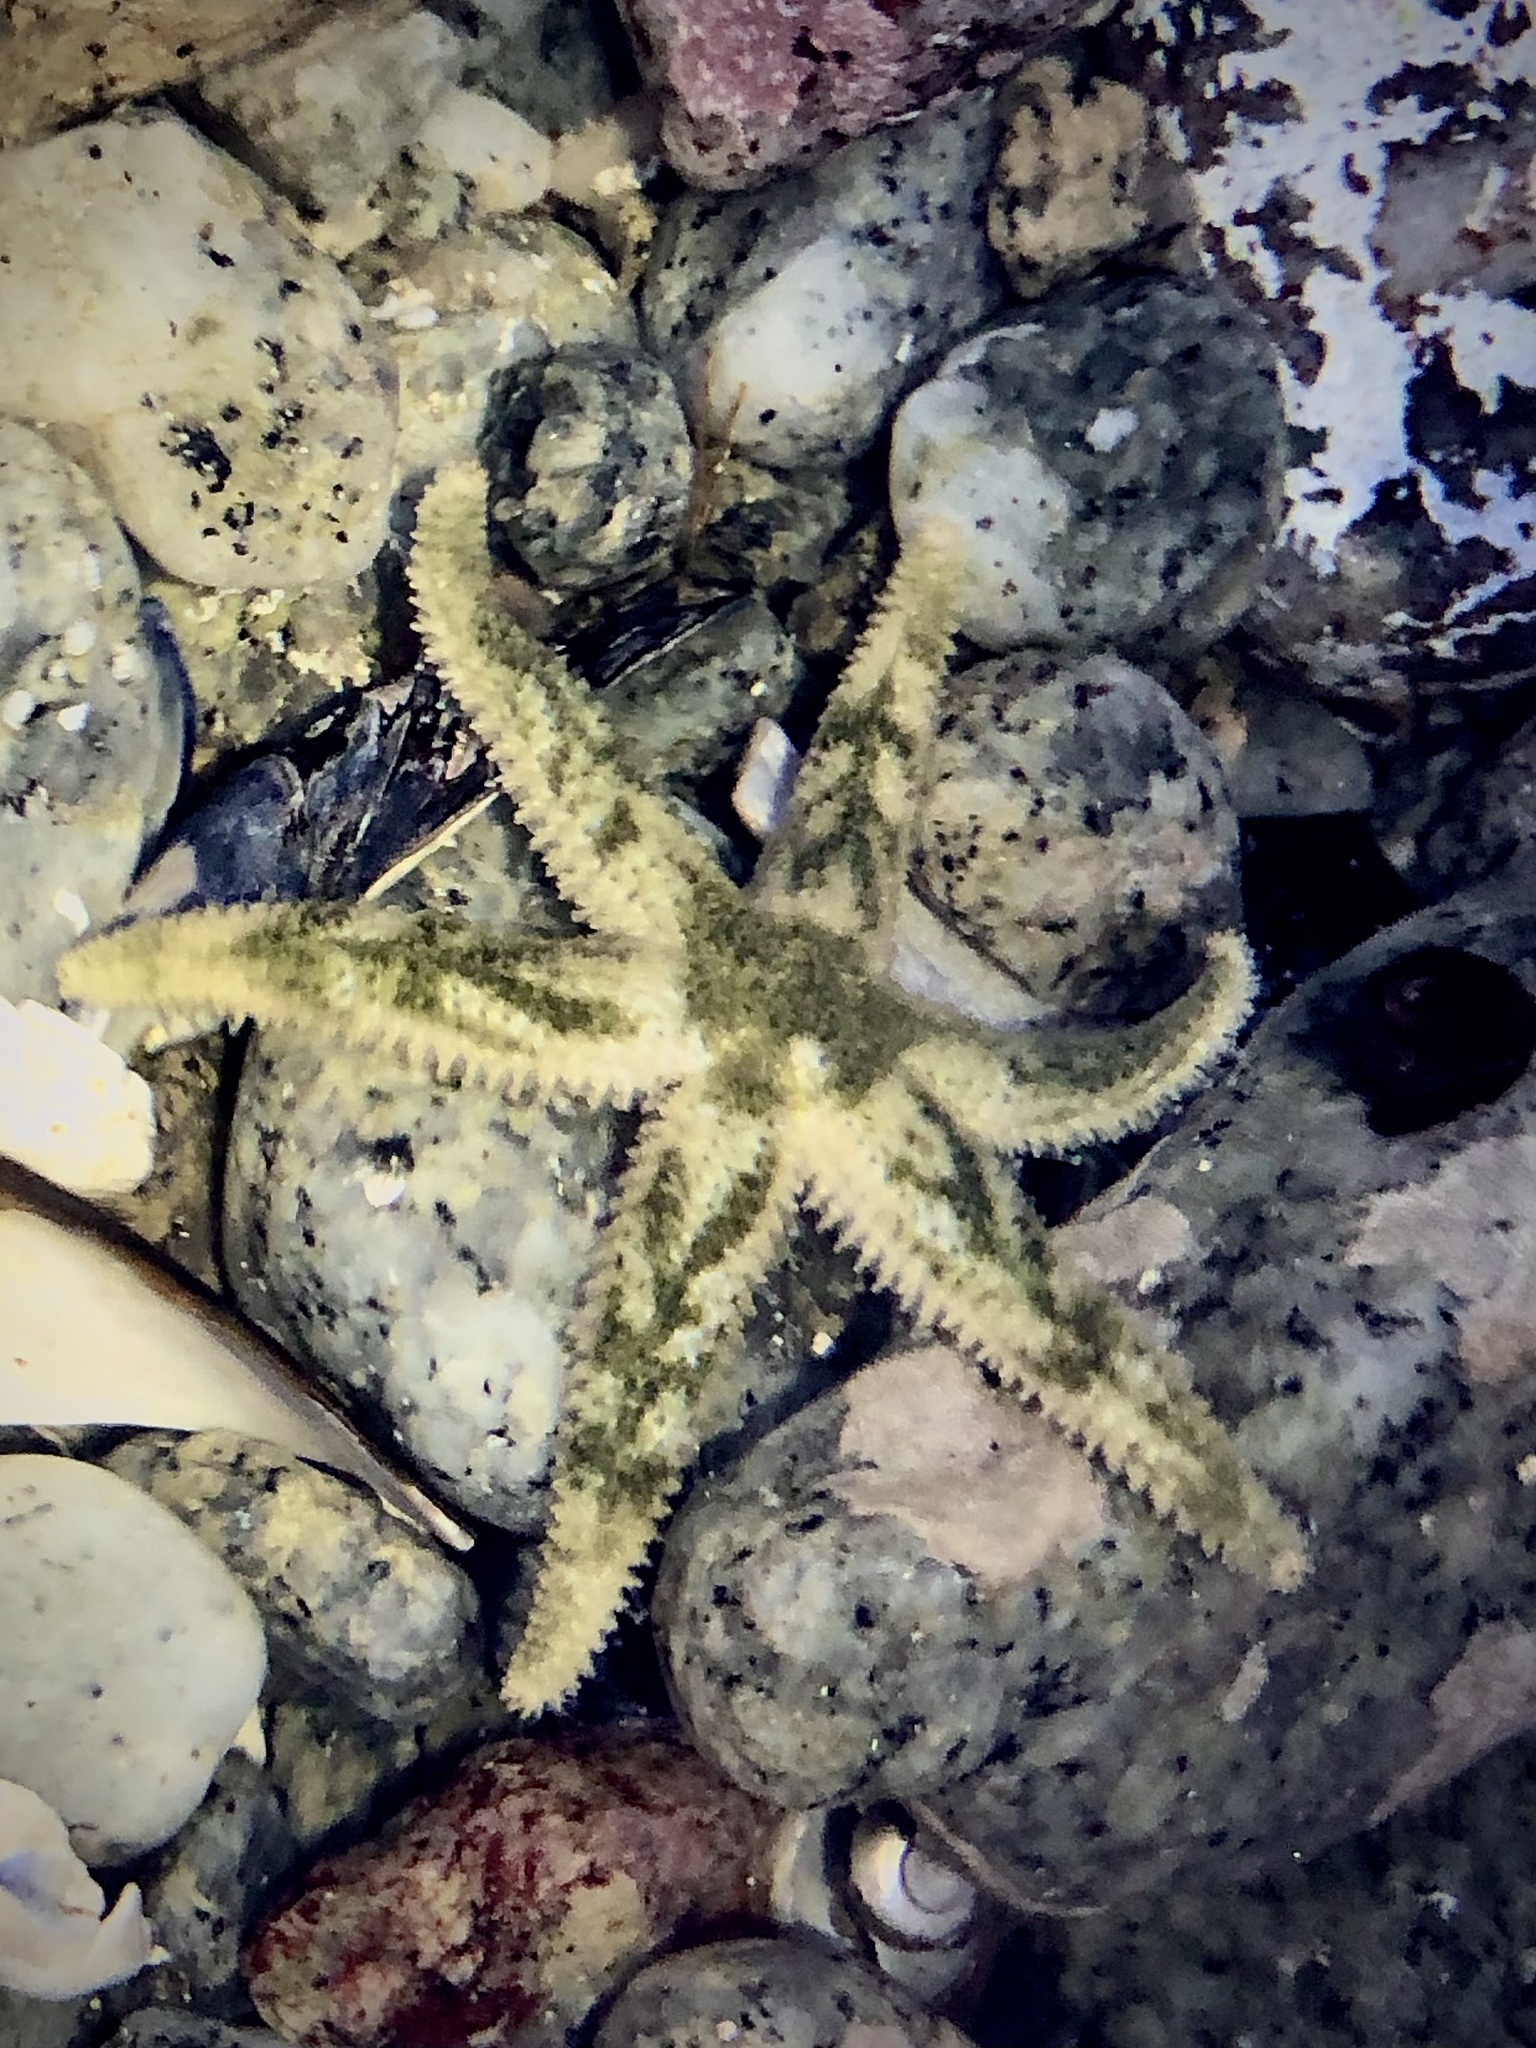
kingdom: Animalia
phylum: Echinodermata
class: Asteroidea
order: Forcipulatida
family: Asteriidae
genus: Leptasterias
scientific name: Leptasterias hexactis
